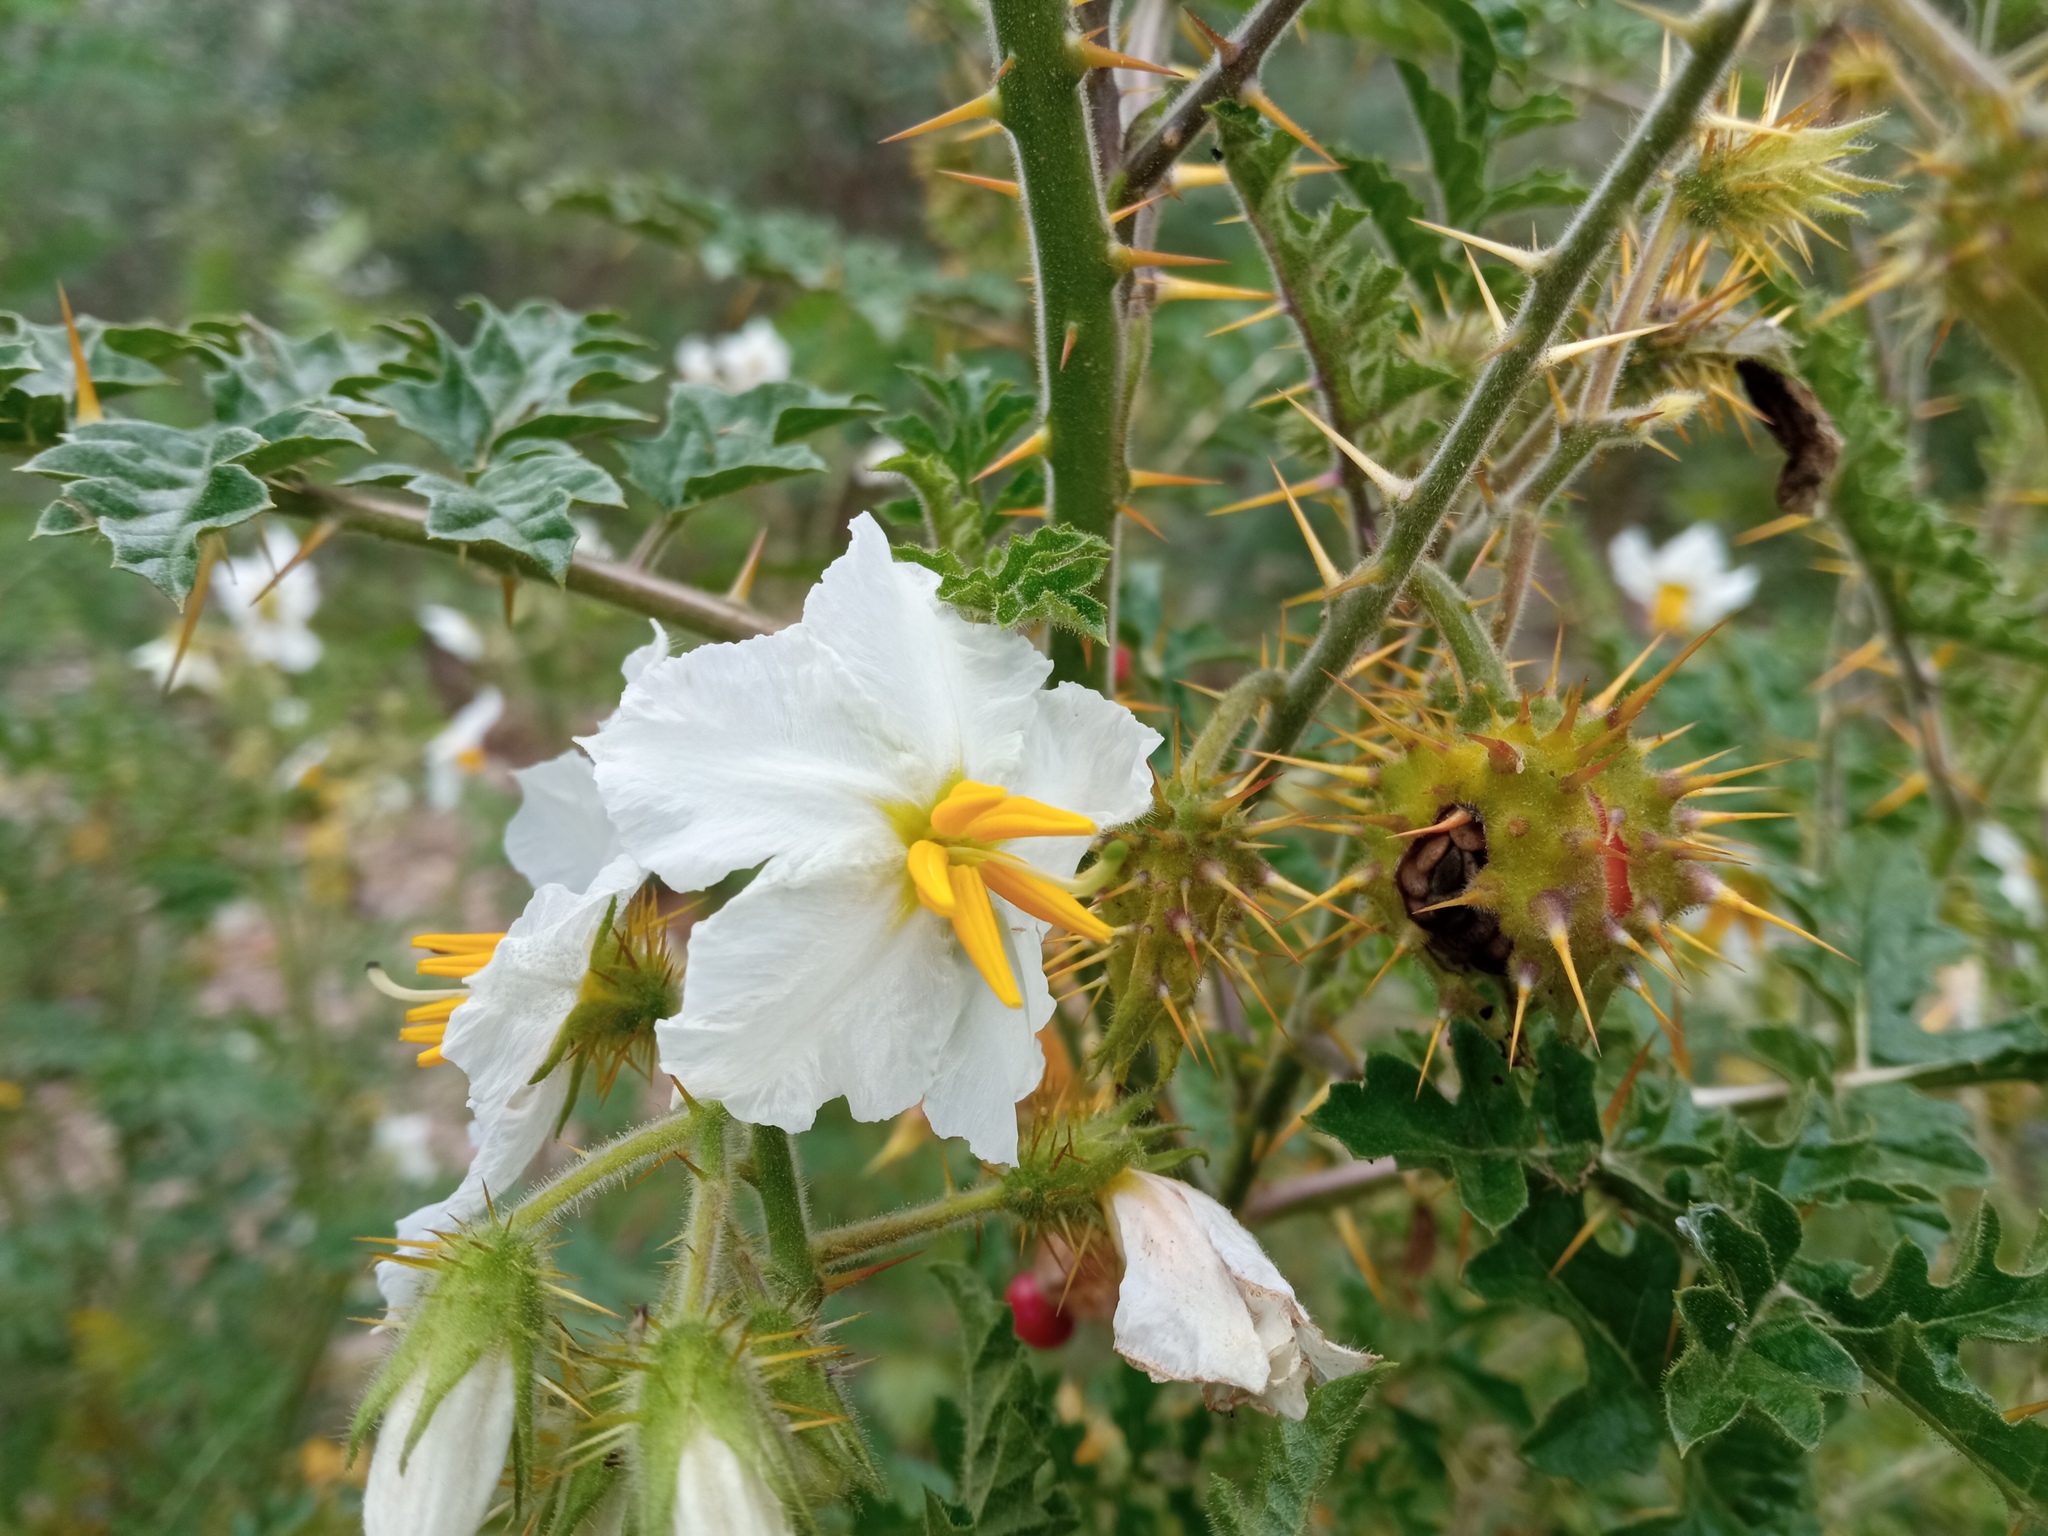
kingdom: Plantae
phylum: Tracheophyta
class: Magnoliopsida
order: Solanales
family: Solanaceae
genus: Solanum
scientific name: Solanum sisymbriifolium
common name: Red buffalo-bur
